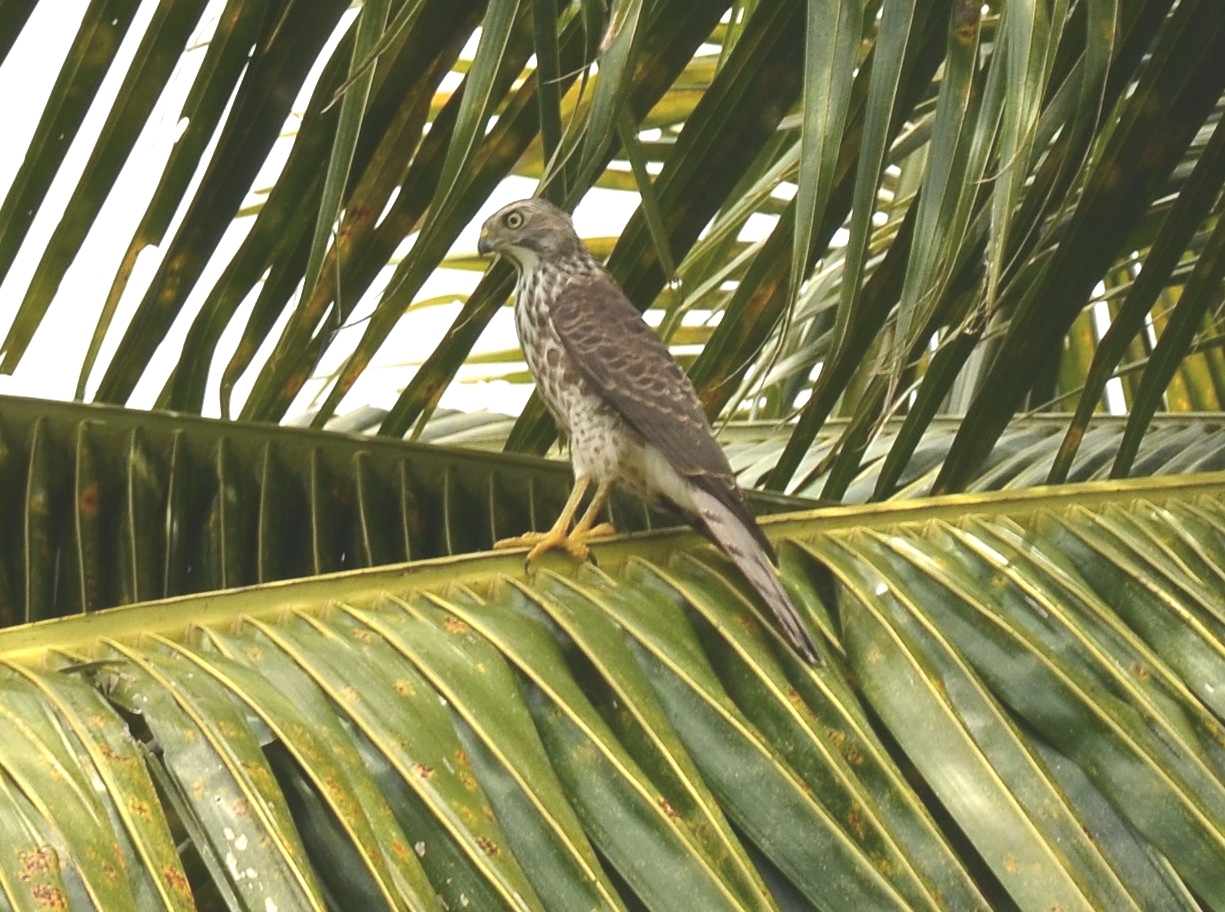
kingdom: Animalia
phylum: Chordata
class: Aves
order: Accipitriformes
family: Accipitridae
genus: Accipiter
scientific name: Accipiter badius
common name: Shikra
